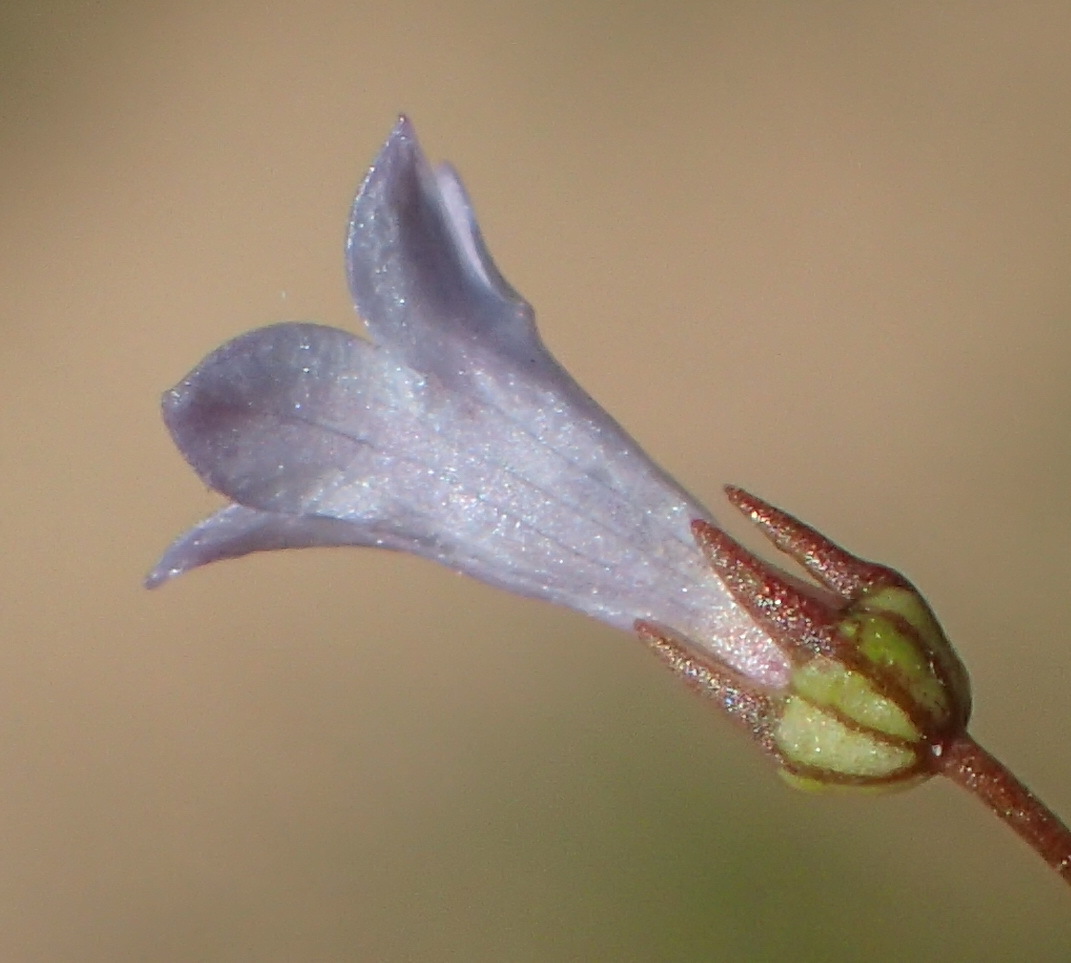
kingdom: Plantae
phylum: Tracheophyta
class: Magnoliopsida
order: Asterales
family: Campanulaceae
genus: Wahlenbergia
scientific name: Wahlenbergia debilis
